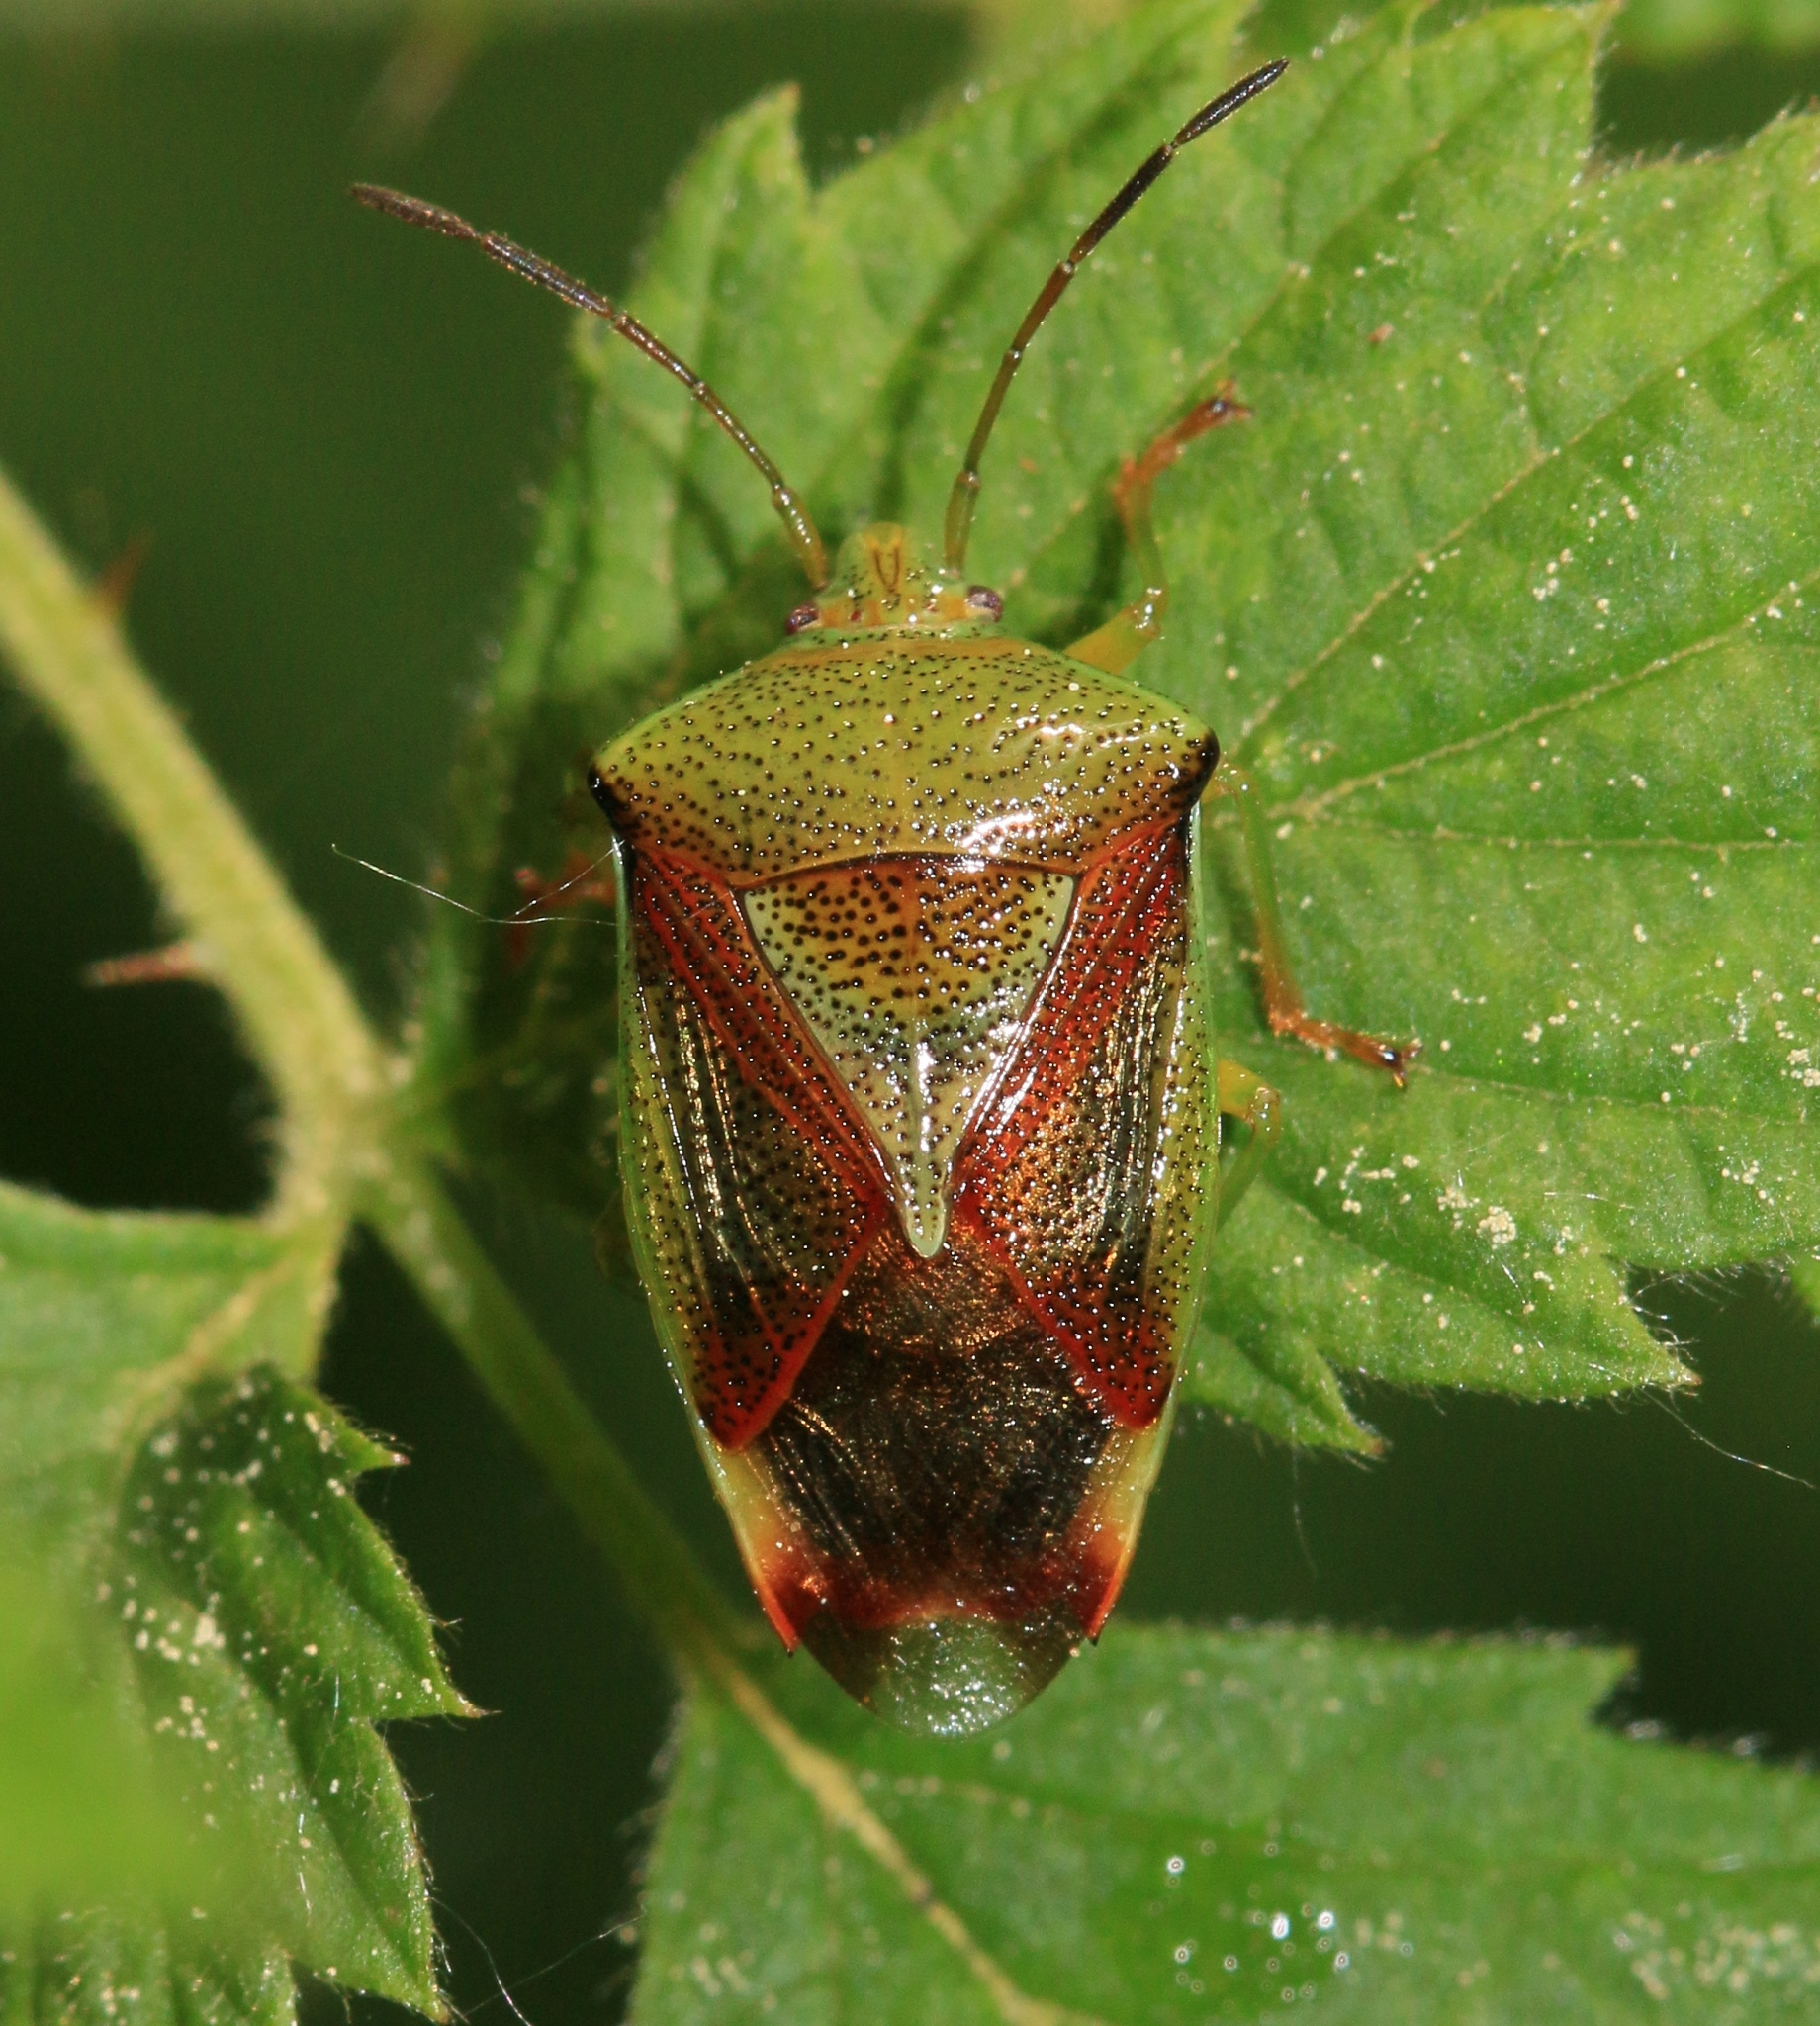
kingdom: Animalia
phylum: Arthropoda
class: Insecta
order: Hemiptera
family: Acanthosomatidae
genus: Elasmostethus
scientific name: Elasmostethus interstinctus
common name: Birch shieldbug
